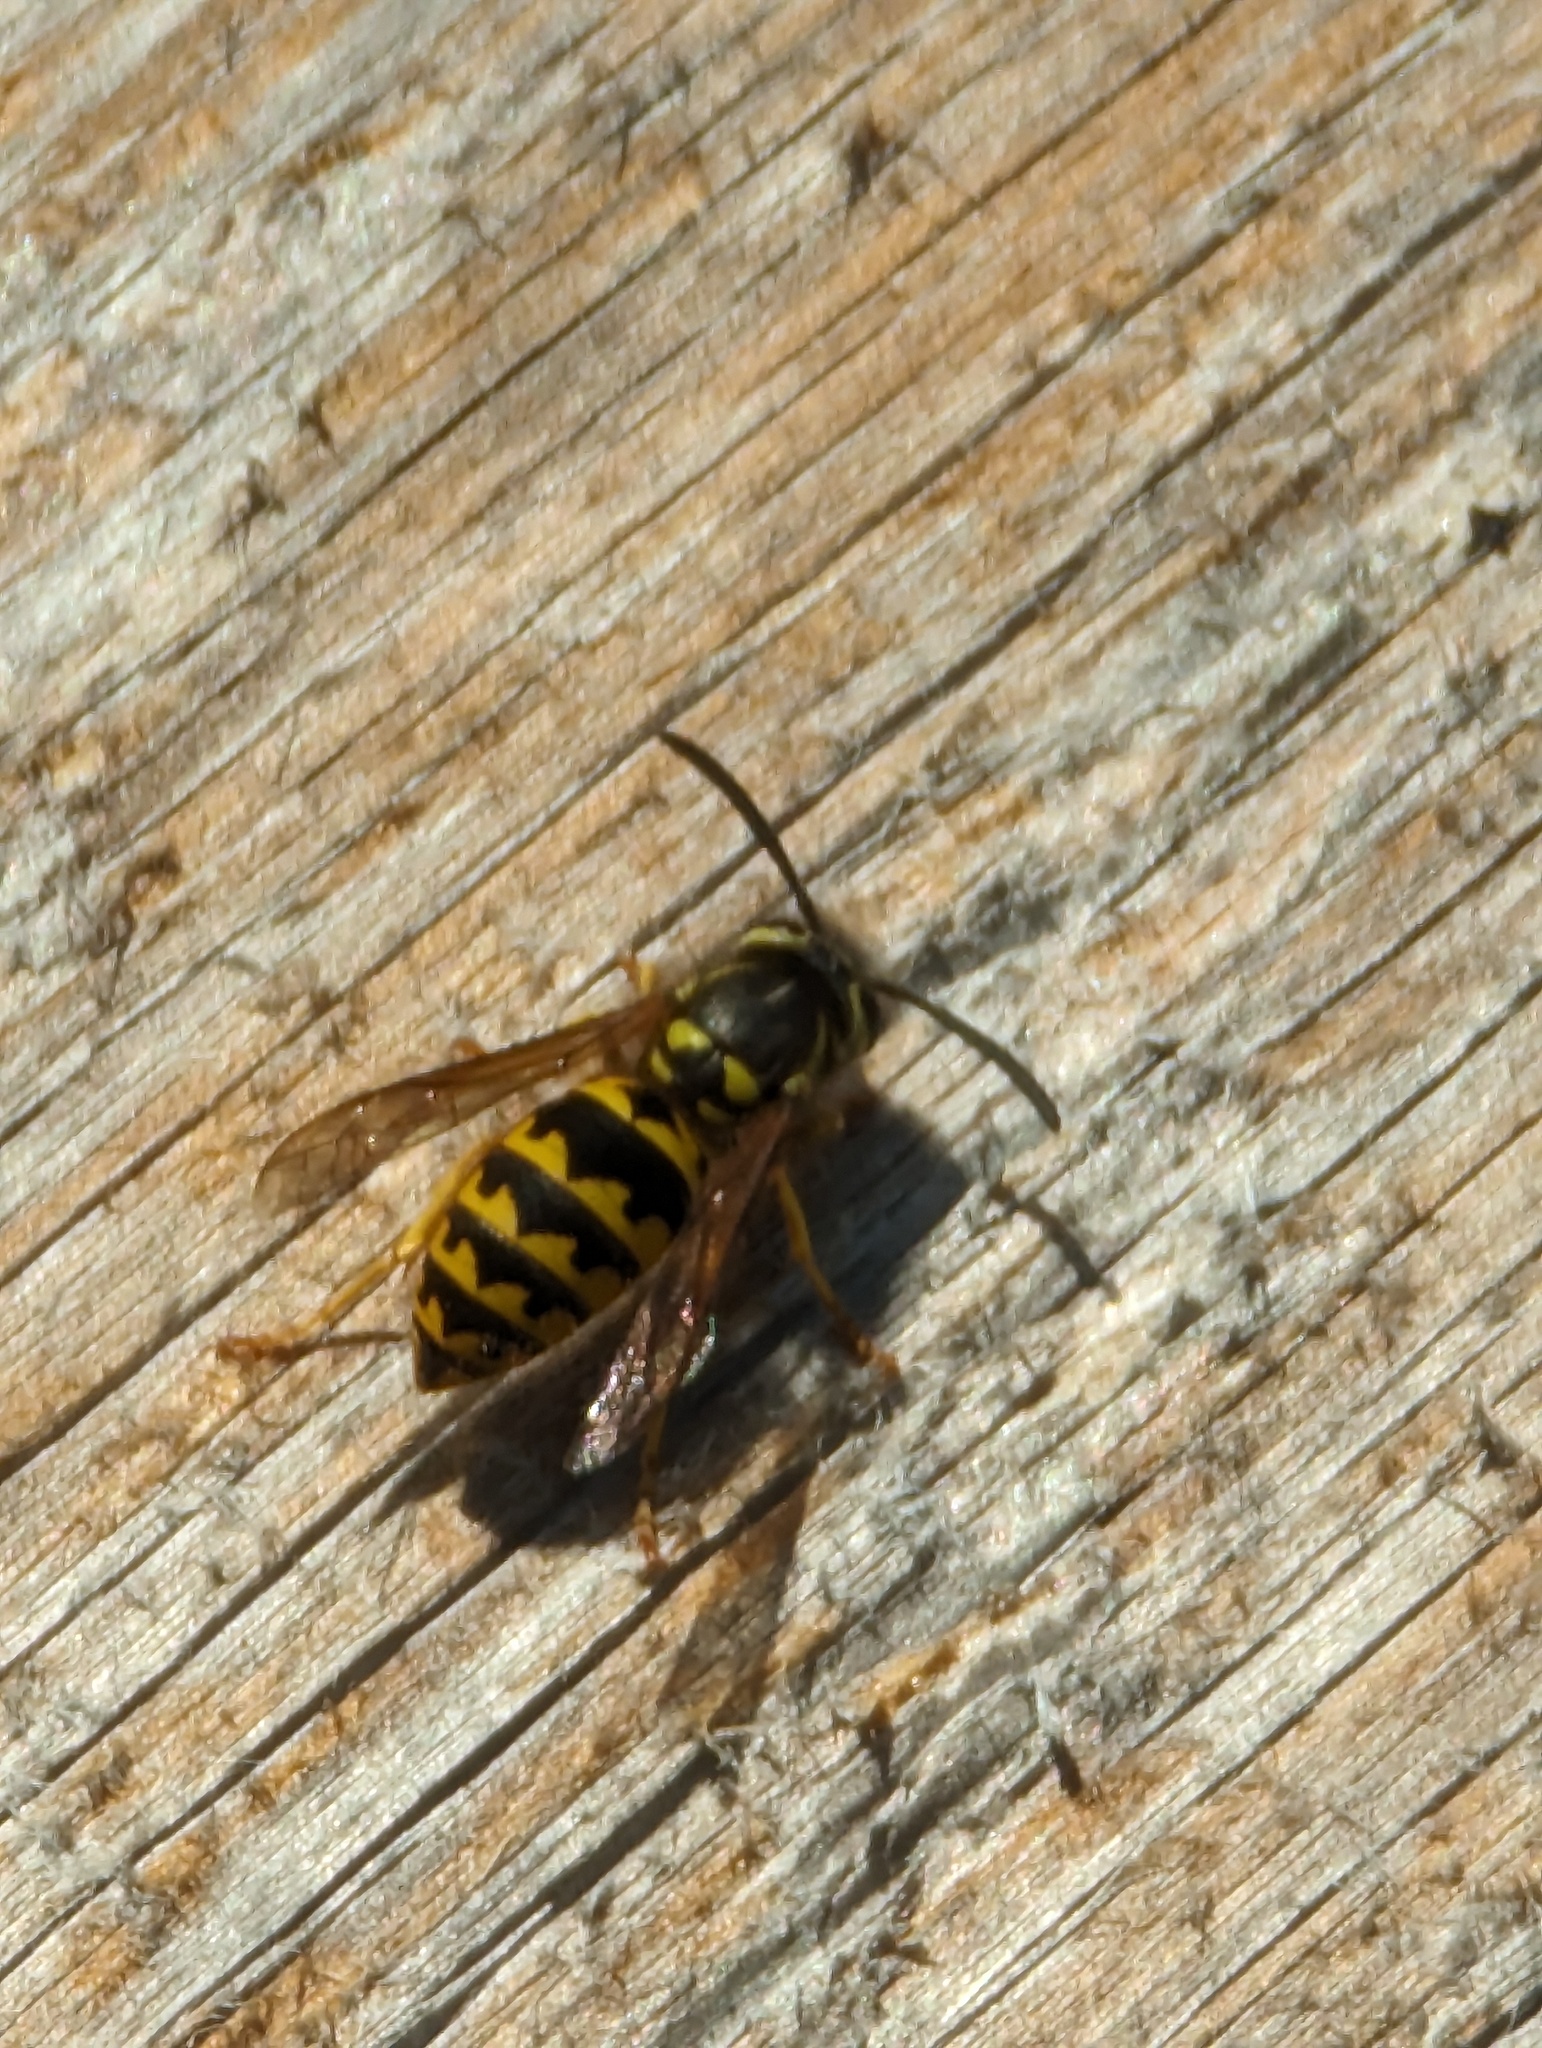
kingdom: Animalia
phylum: Arthropoda
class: Insecta
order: Hymenoptera
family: Vespidae
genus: Vespula
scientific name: Vespula pensylvanica
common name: Western yellowjacket
